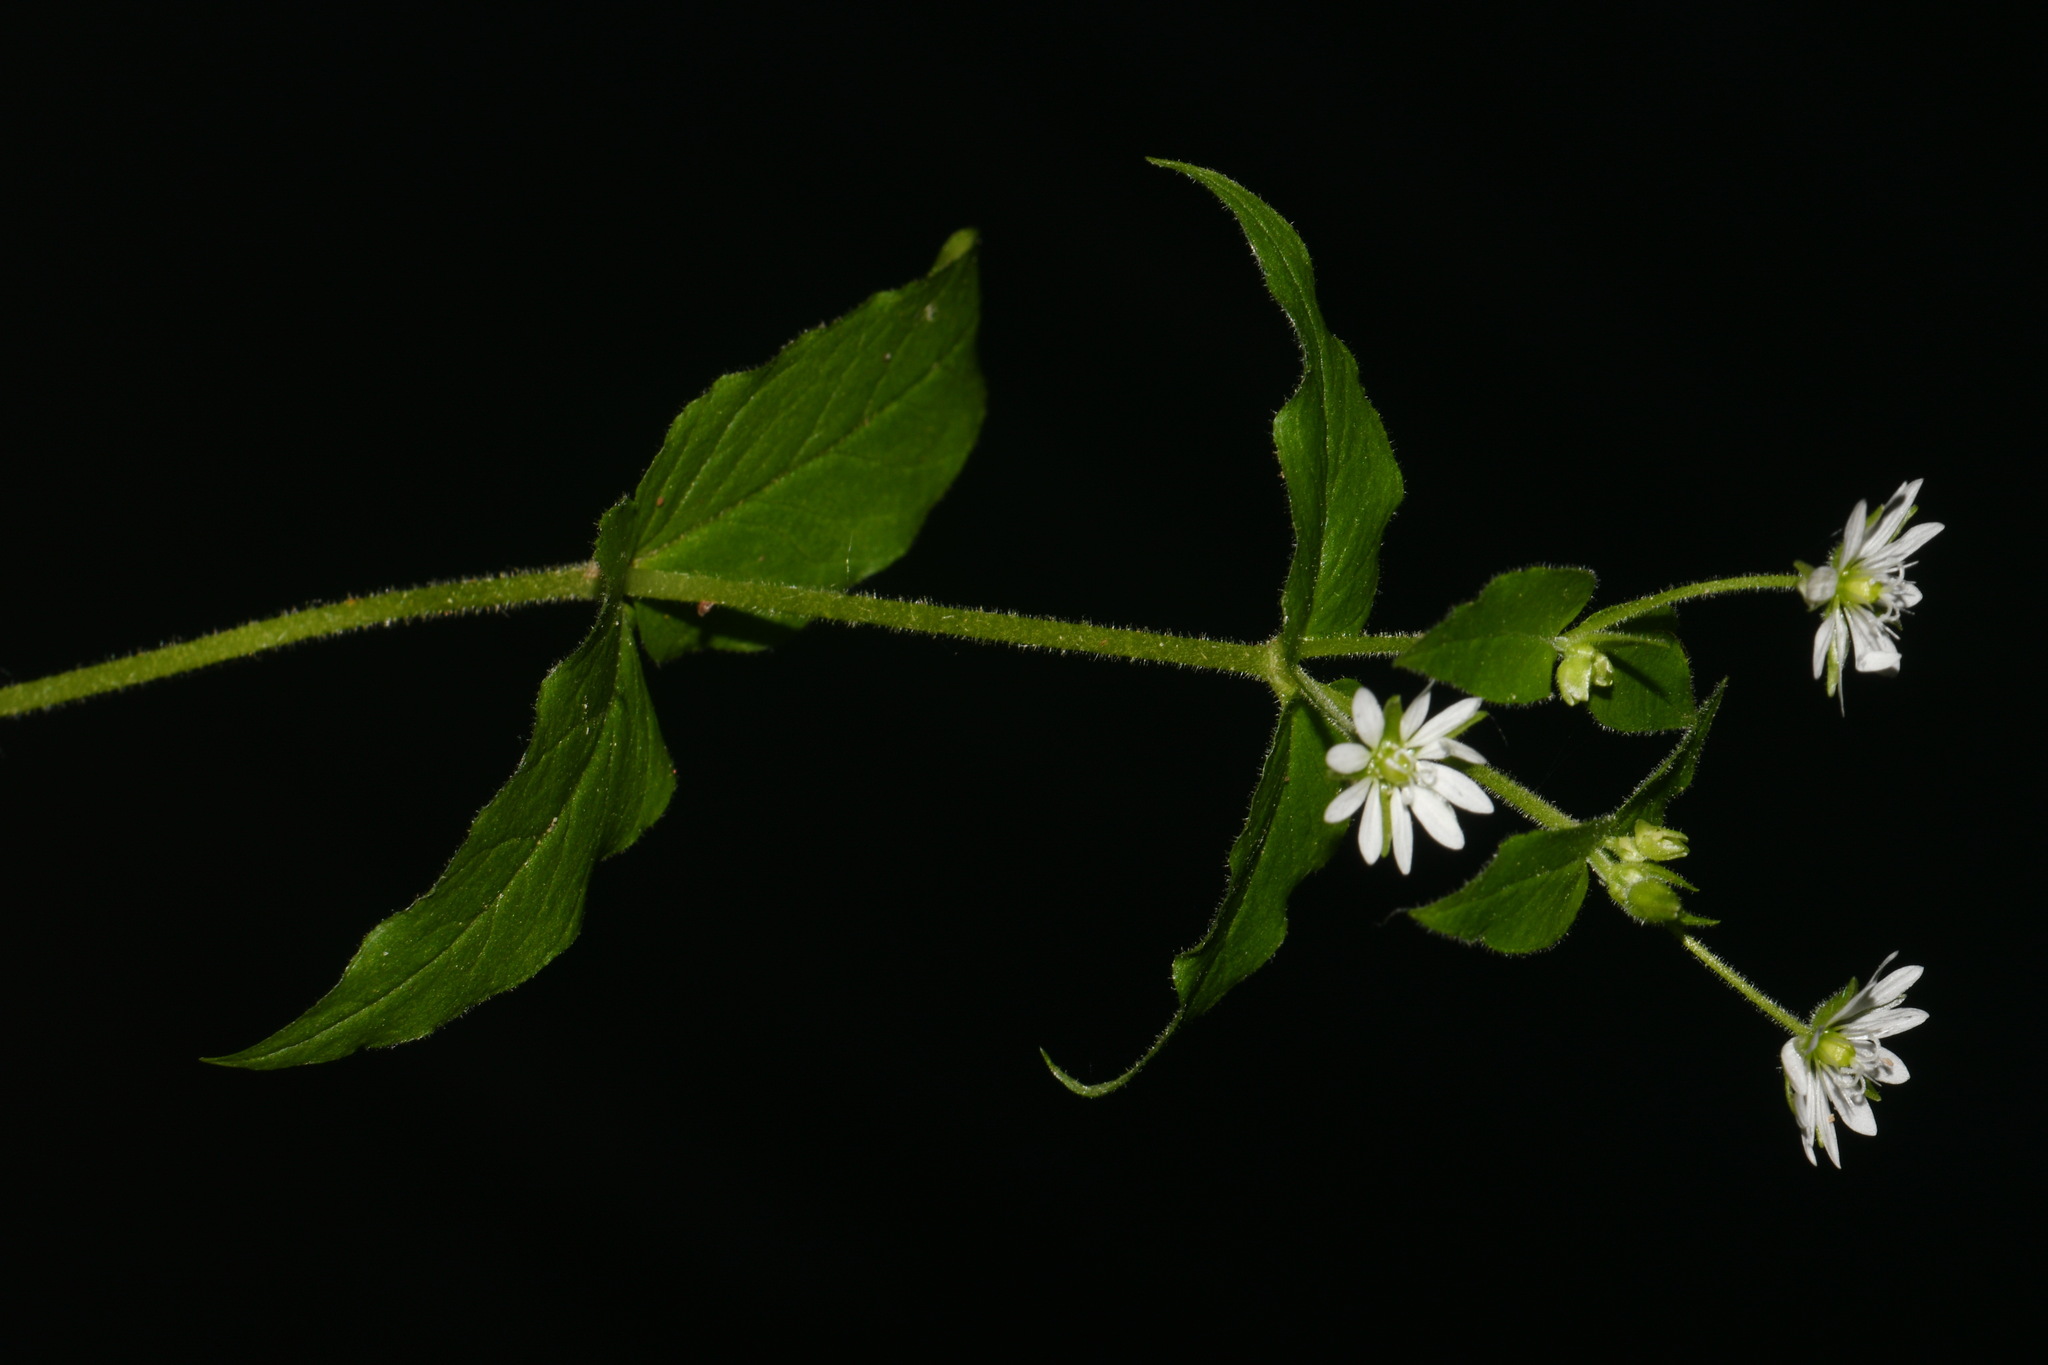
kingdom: Plantae
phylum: Tracheophyta
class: Magnoliopsida
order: Caryophyllales
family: Caryophyllaceae
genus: Stellaria
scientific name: Stellaria aquatica
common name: Water chickweed
